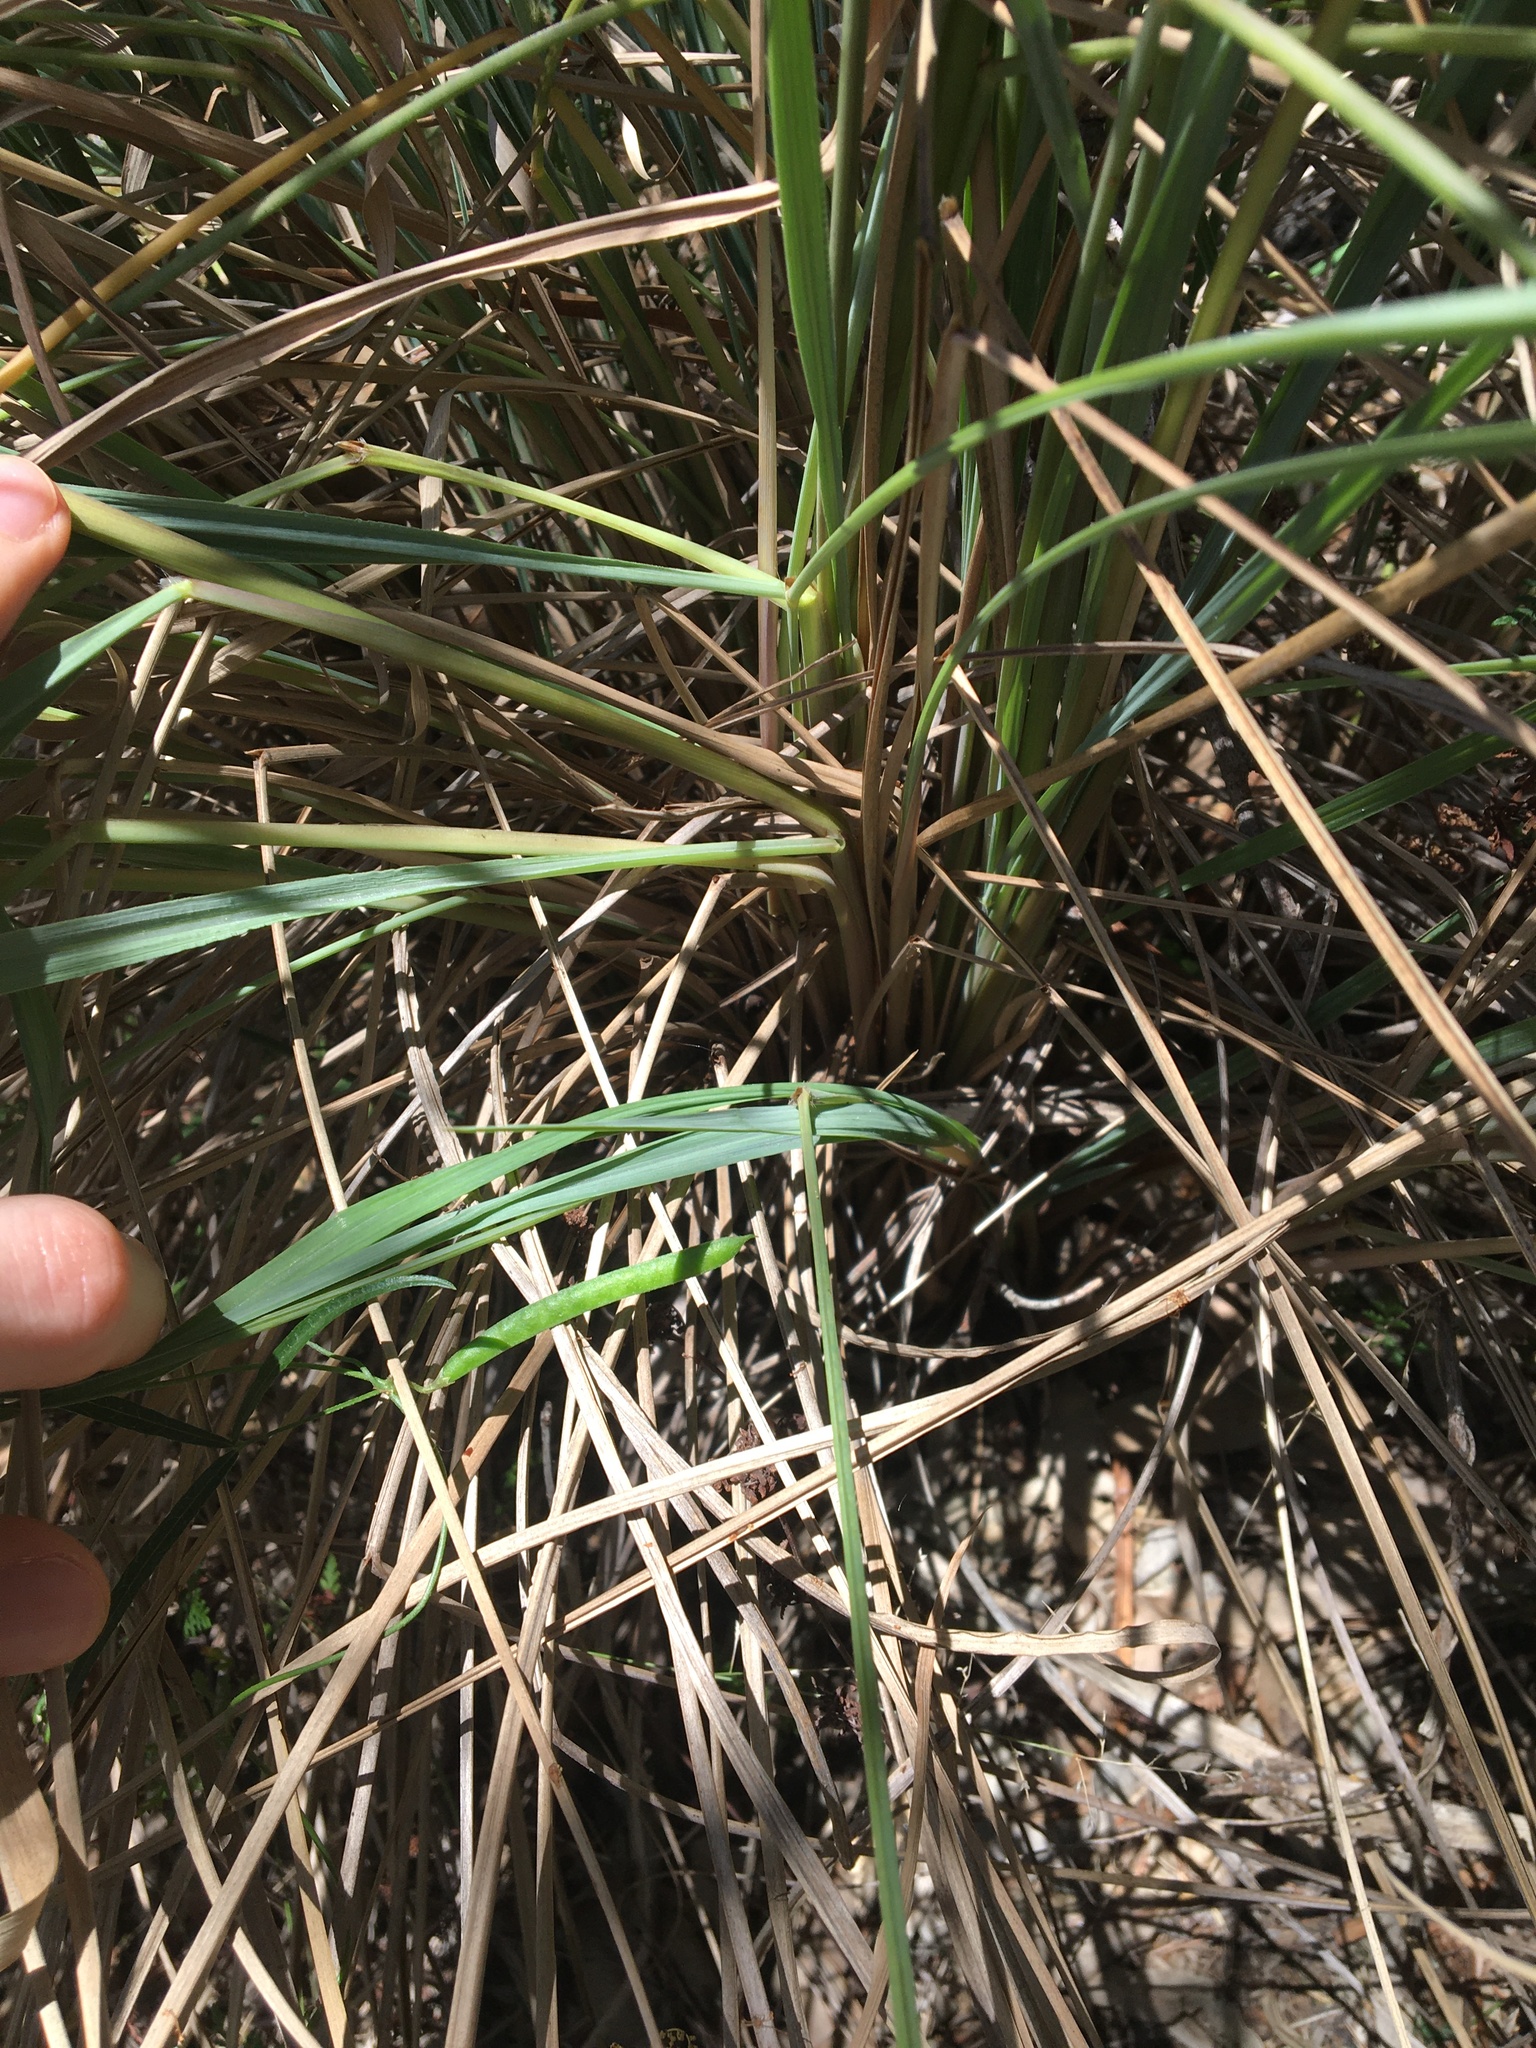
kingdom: Plantae
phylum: Tracheophyta
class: Liliopsida
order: Poales
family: Poaceae
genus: Paspalum
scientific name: Paspalum quadrifarium
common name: Tussock paspalum
